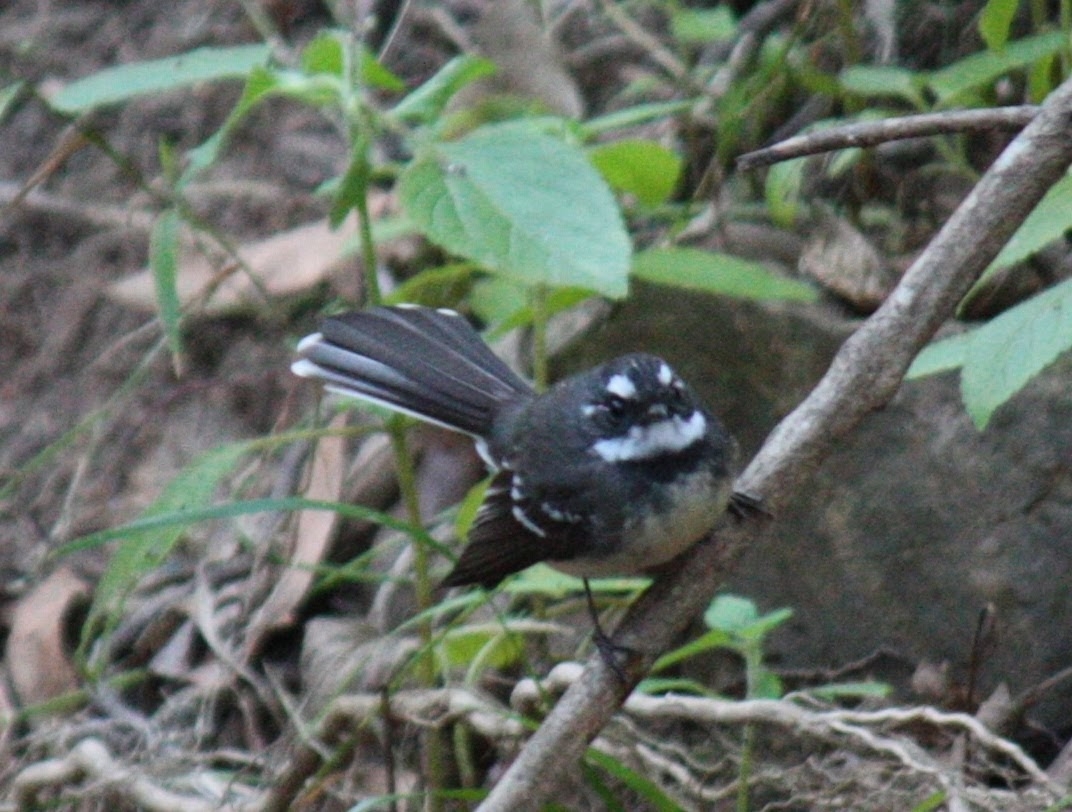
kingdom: Animalia
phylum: Chordata
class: Aves
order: Passeriformes
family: Rhipiduridae
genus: Rhipidura
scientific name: Rhipidura albiscapa
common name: Grey fantail
